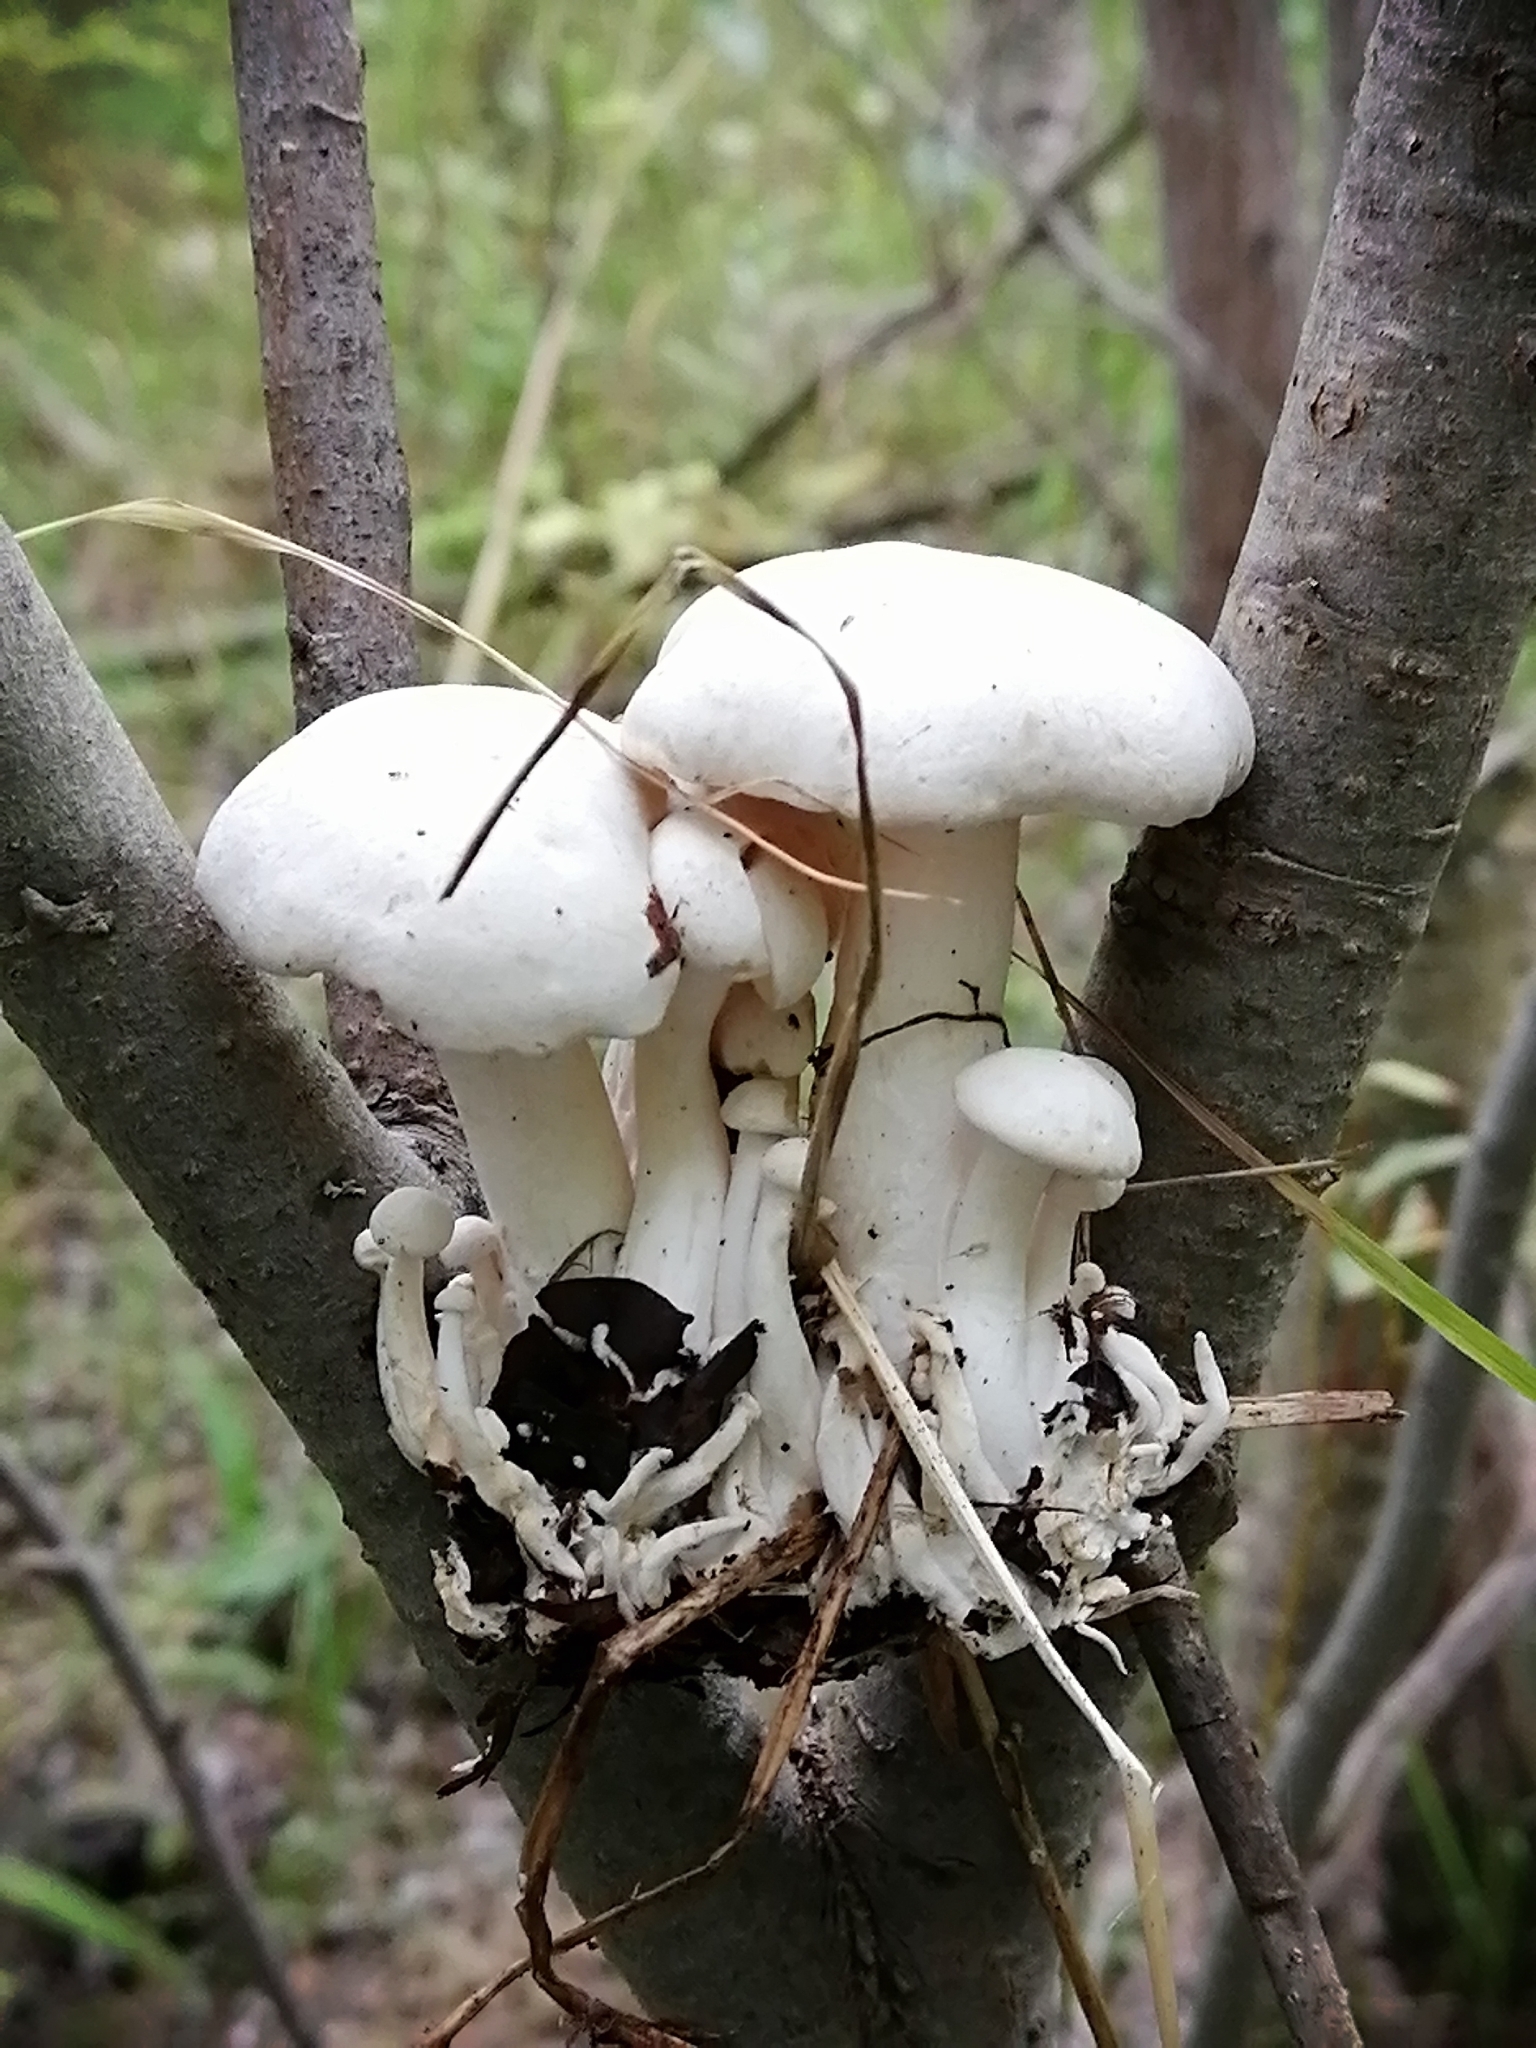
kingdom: Fungi
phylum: Basidiomycota
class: Agaricomycetes
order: Agaricales
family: Lyophyllaceae
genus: Lyophyllum
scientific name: Lyophyllum decastes
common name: Clustered domecap
